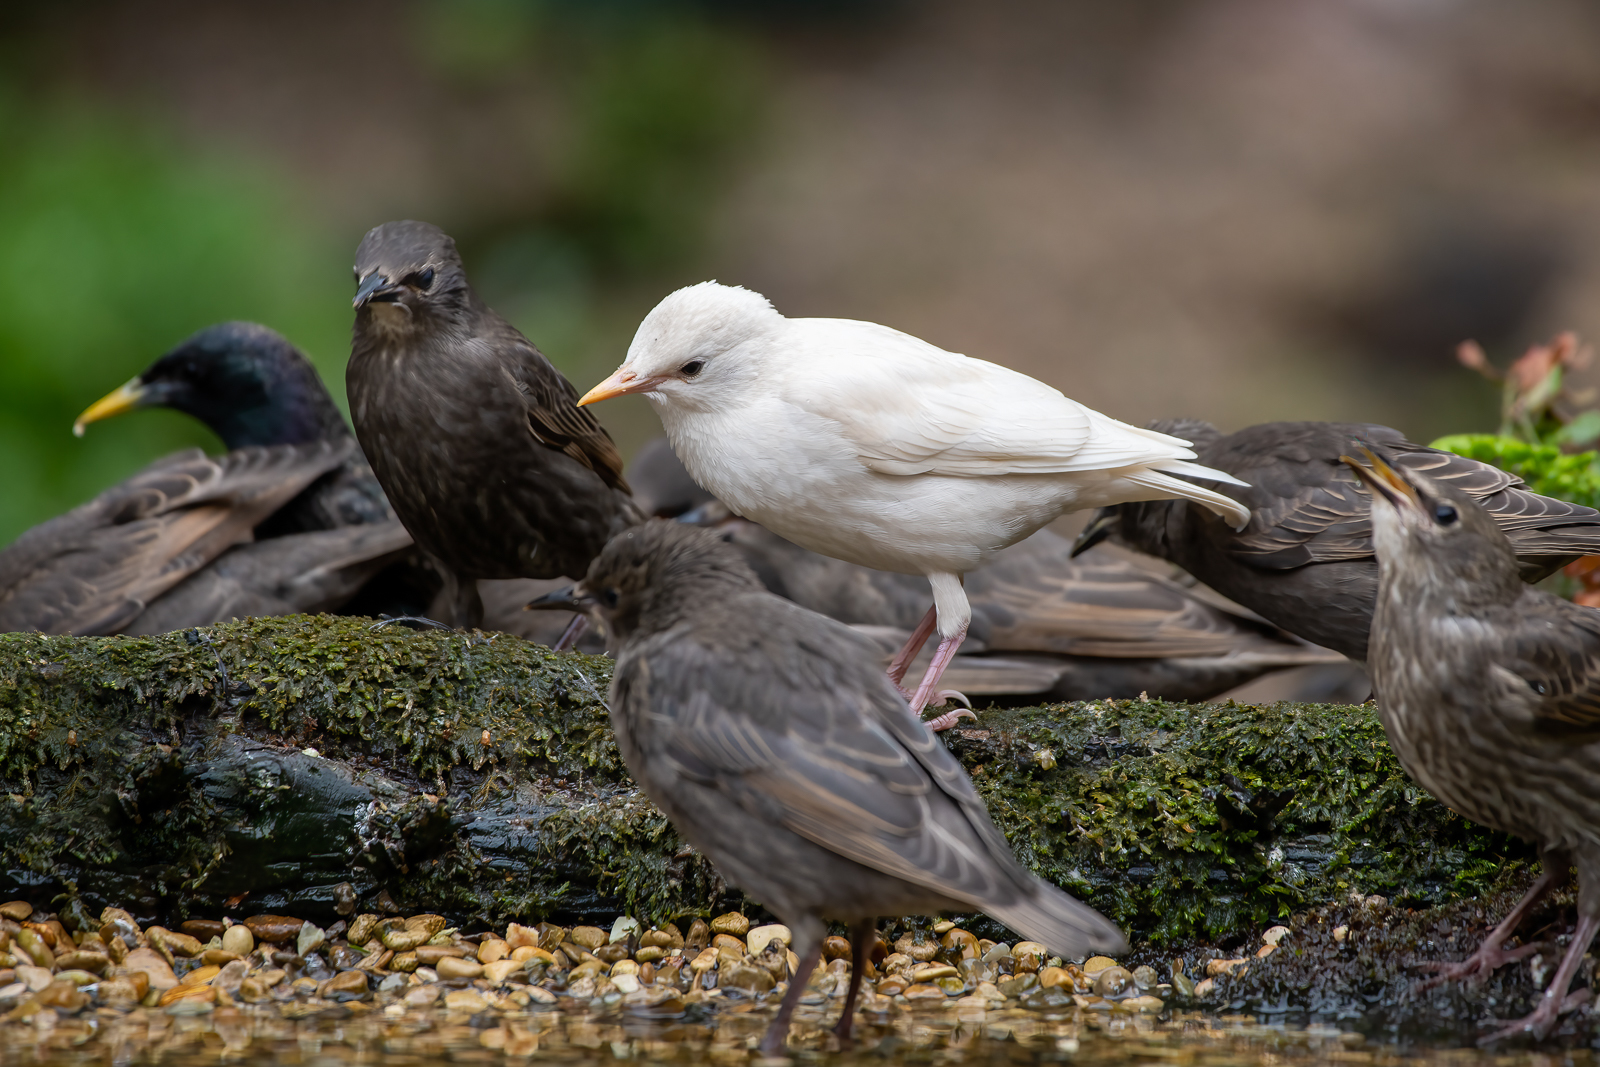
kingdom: Animalia
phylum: Chordata
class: Aves
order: Passeriformes
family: Sturnidae
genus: Sturnus
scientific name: Sturnus vulgaris
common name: Common starling
